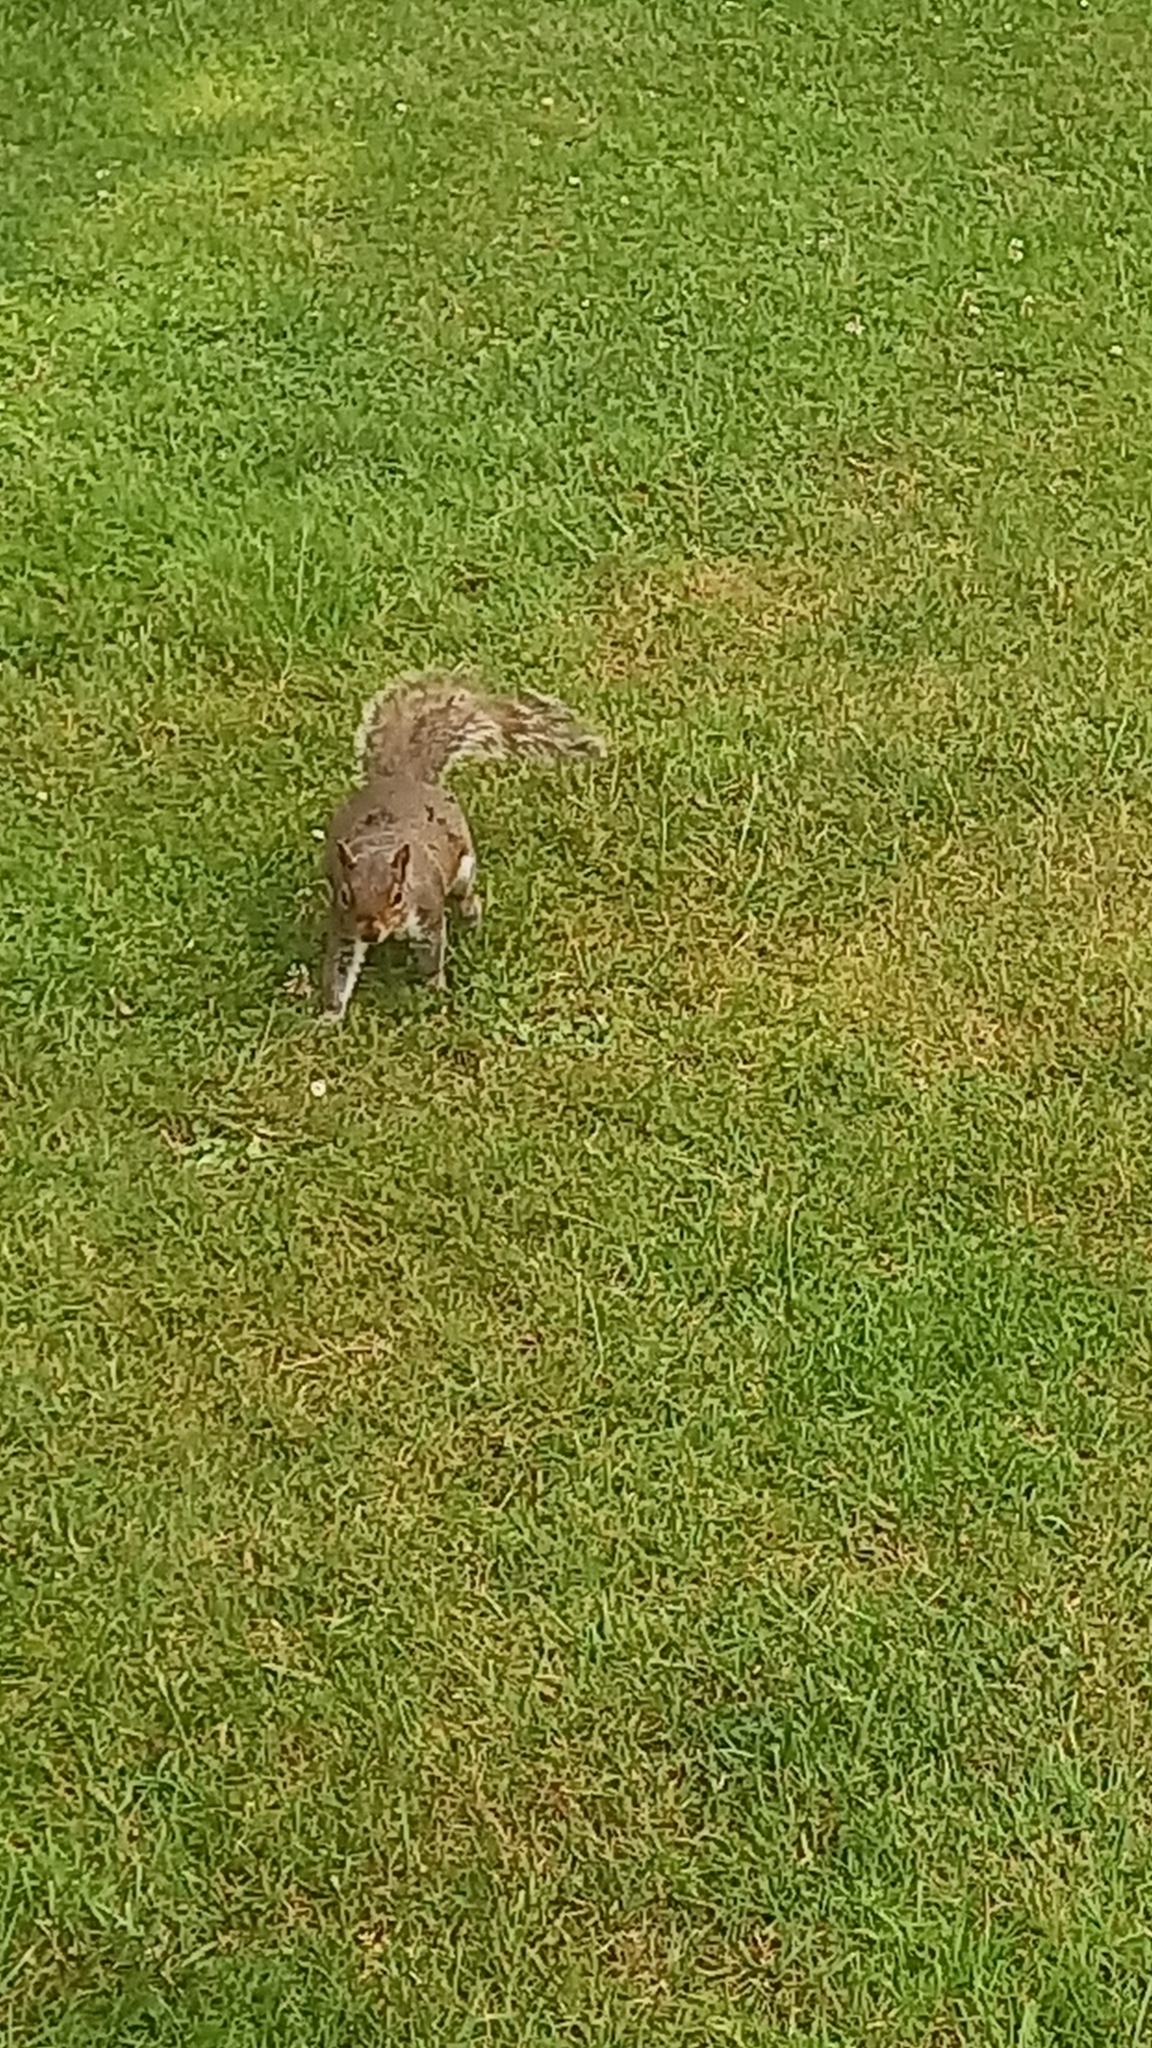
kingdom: Animalia
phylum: Chordata
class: Mammalia
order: Rodentia
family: Sciuridae
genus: Sciurus
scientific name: Sciurus carolinensis
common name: Eastern gray squirrel
